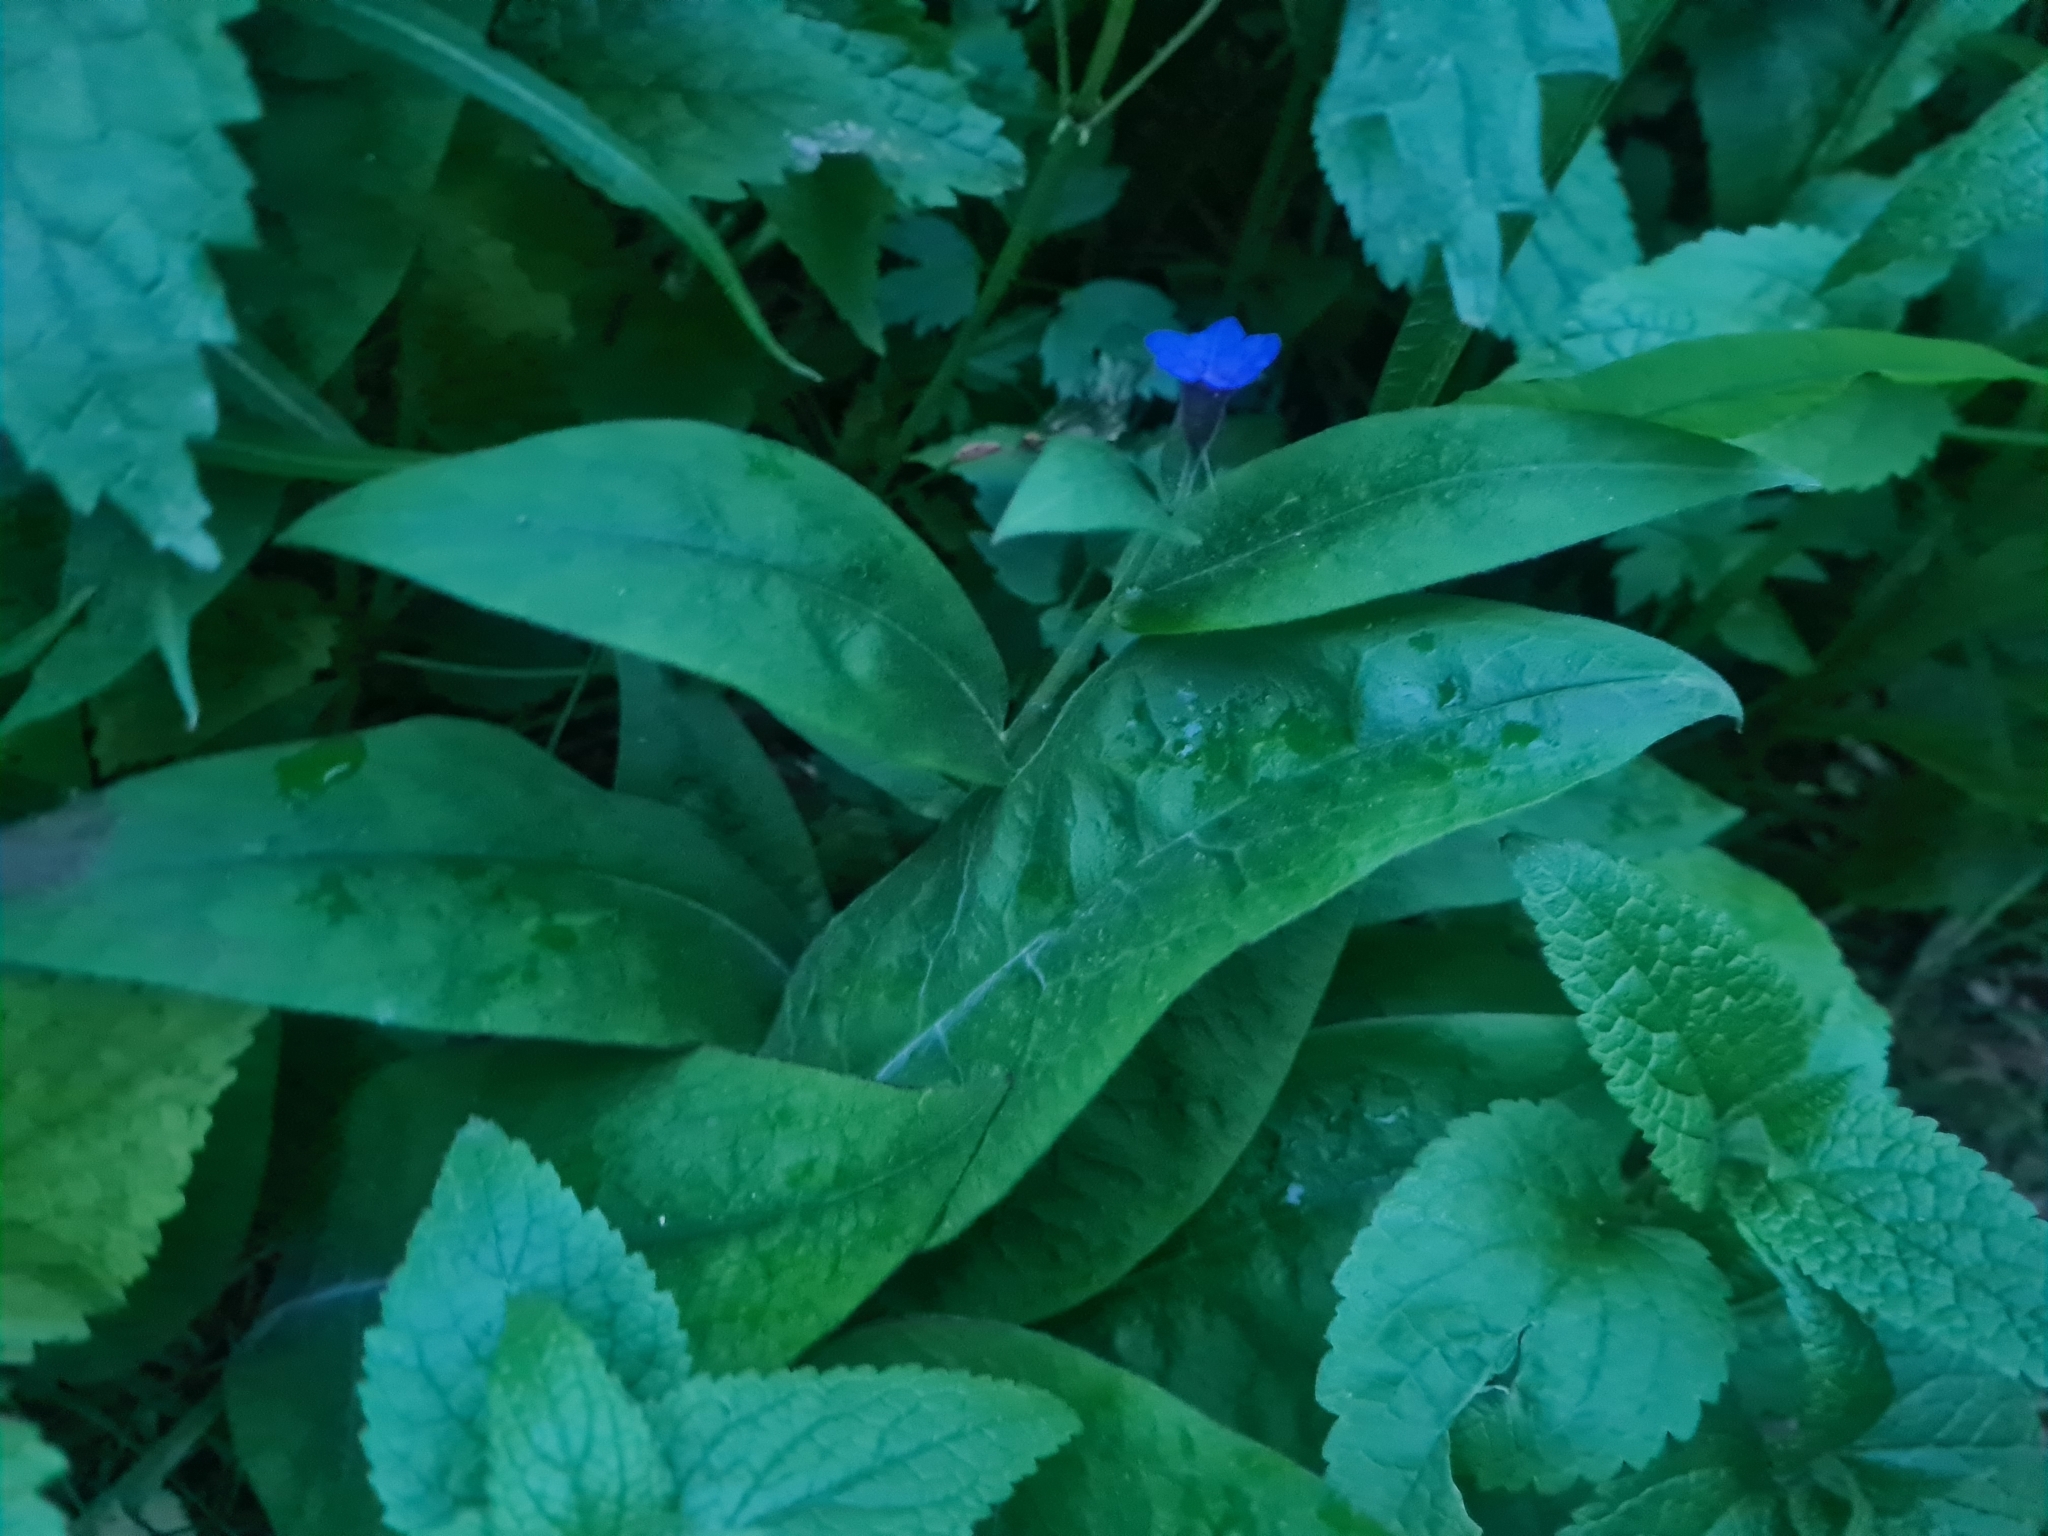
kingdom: Plantae
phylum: Tracheophyta
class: Magnoliopsida
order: Boraginales
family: Boraginaceae
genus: Pulmonaria
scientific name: Pulmonaria mollis
